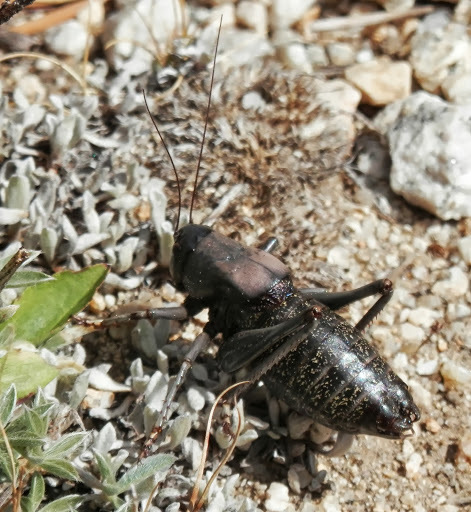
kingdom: Animalia
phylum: Arthropoda
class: Insecta
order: Orthoptera
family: Tettigoniidae
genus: Anabrus
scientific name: Anabrus simplex
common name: Mormon cricket
